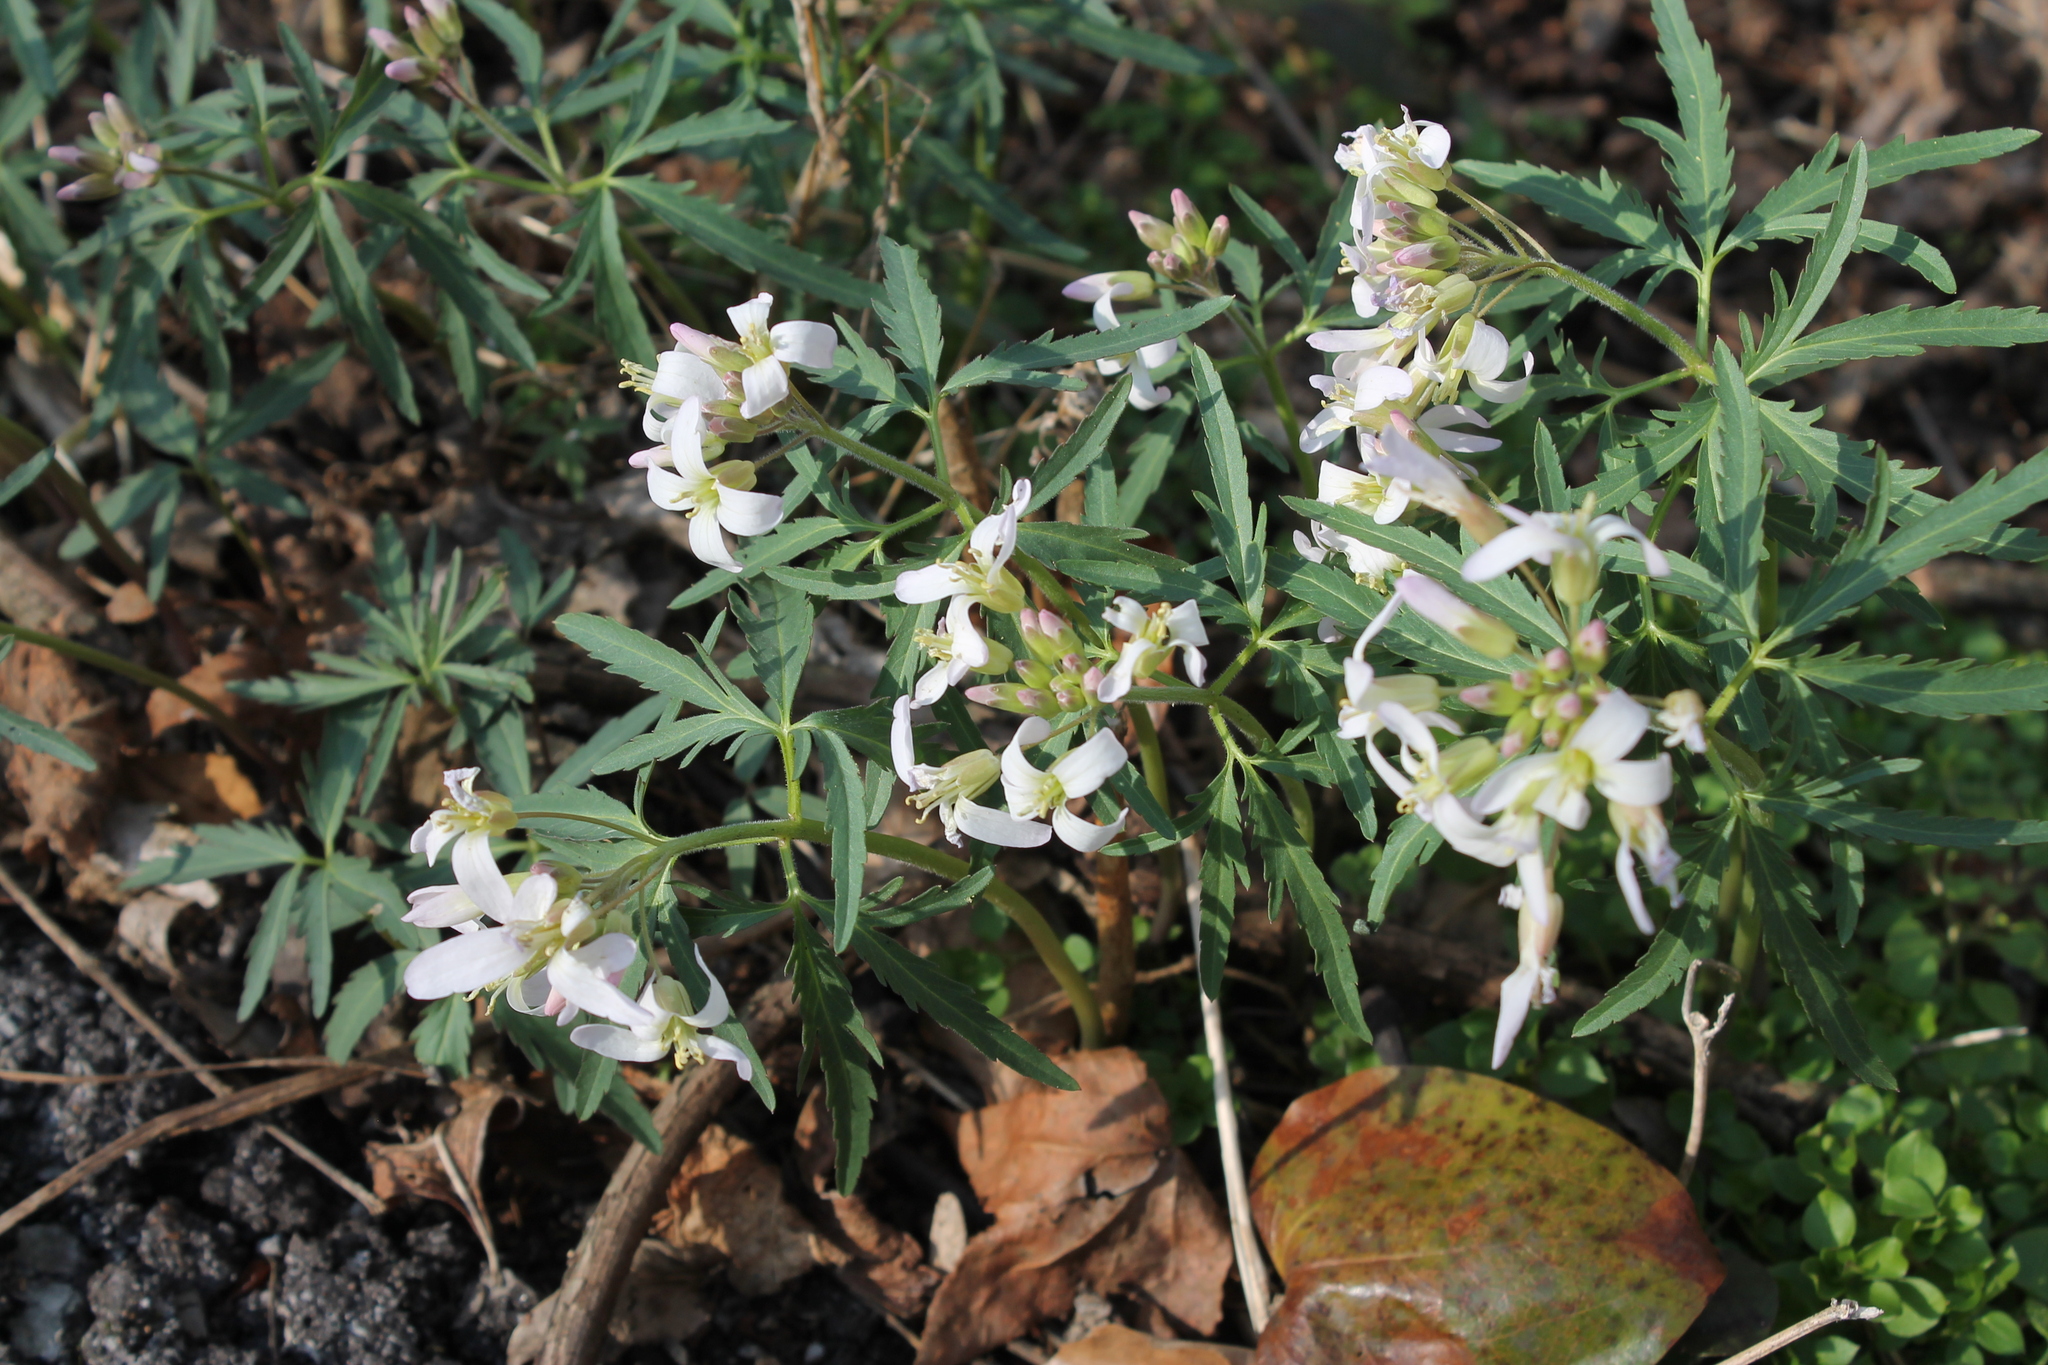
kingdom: Plantae
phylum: Tracheophyta
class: Magnoliopsida
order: Brassicales
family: Brassicaceae
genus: Cardamine
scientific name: Cardamine concatenata
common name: Cut-leaf toothcup
